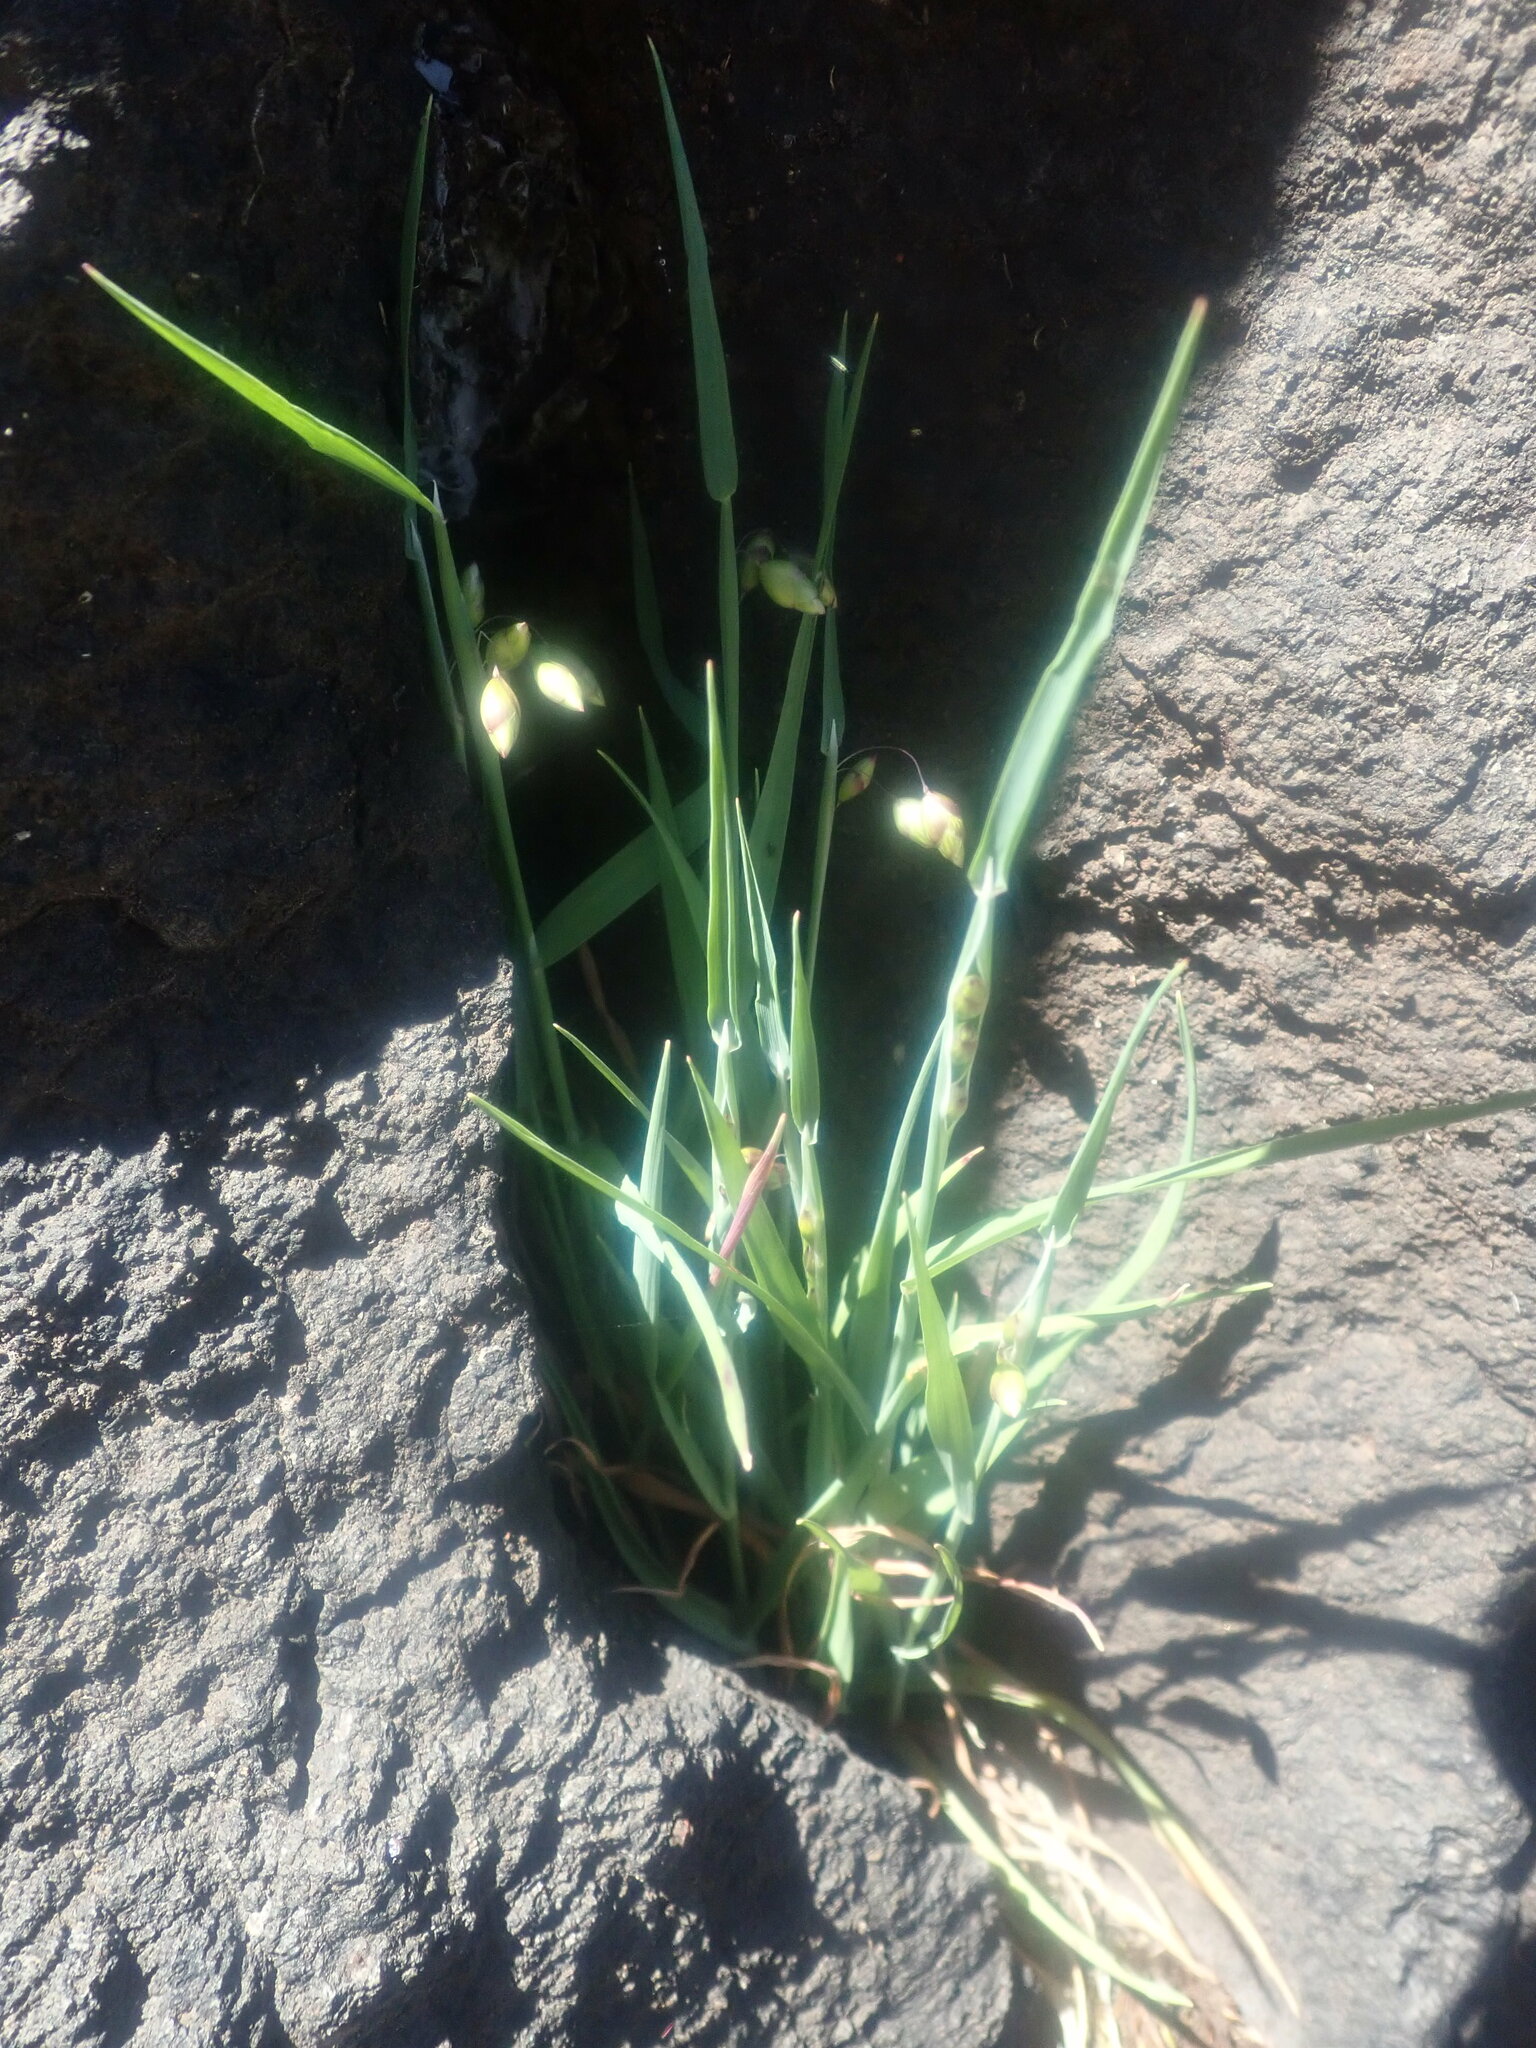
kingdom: Plantae
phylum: Tracheophyta
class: Liliopsida
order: Poales
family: Poaceae
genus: Briza
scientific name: Briza maxima
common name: Big quakinggrass
